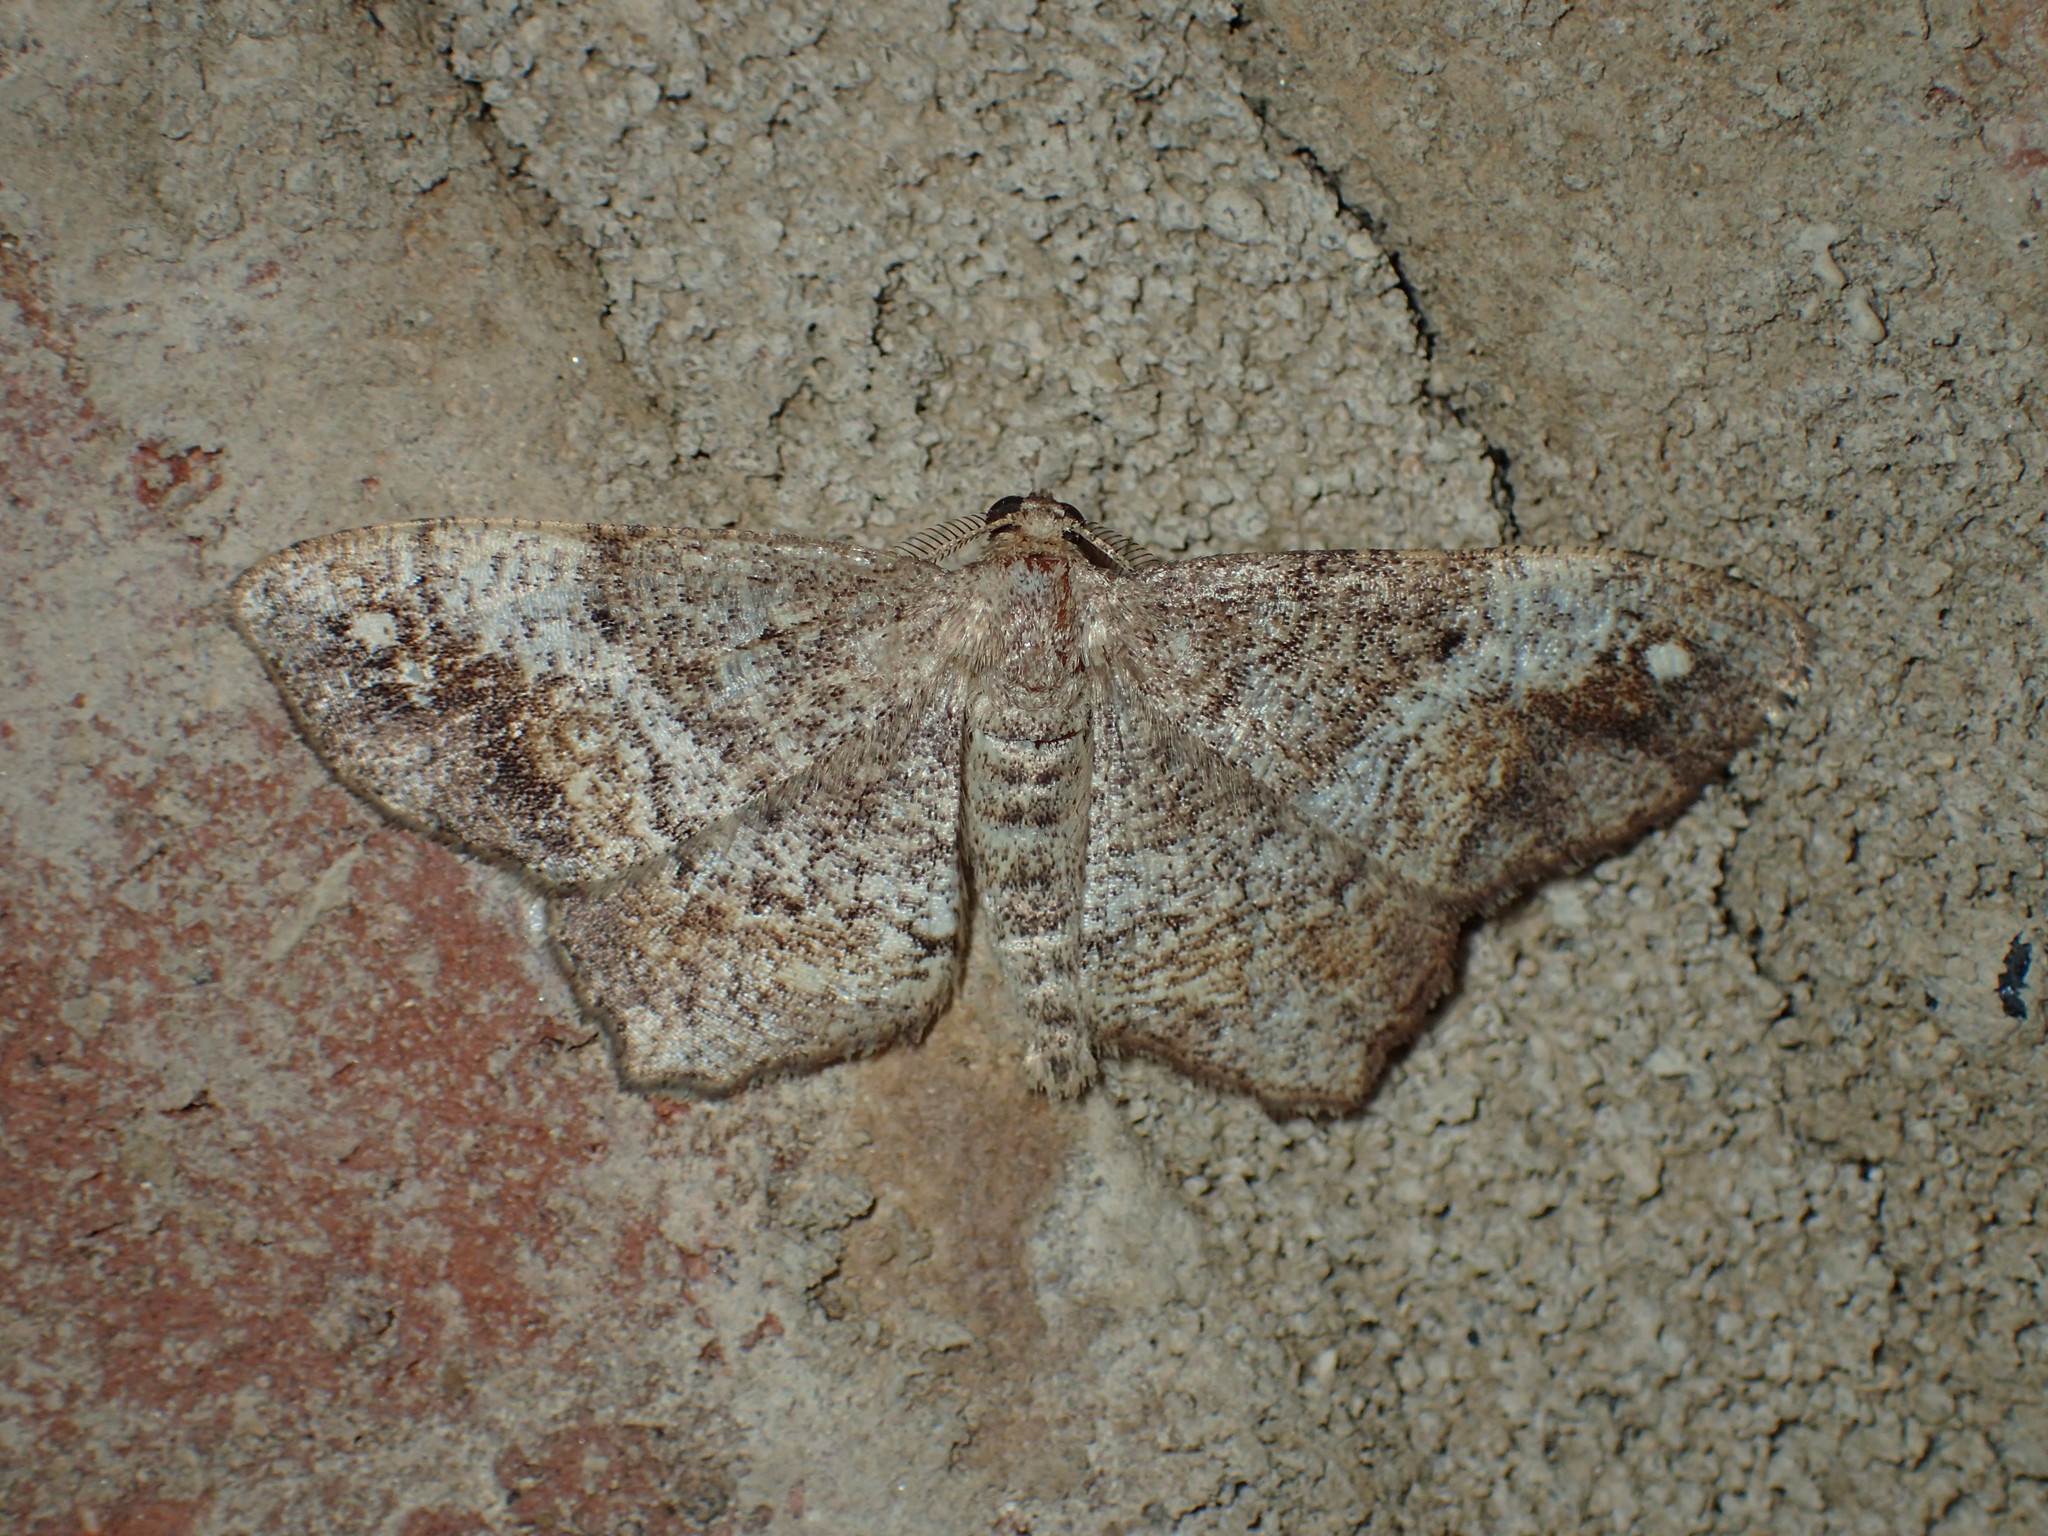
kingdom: Animalia
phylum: Arthropoda
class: Insecta
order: Lepidoptera
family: Geometridae
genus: Hypagyrtis
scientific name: Hypagyrtis unipunctata
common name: One-spotted variant
